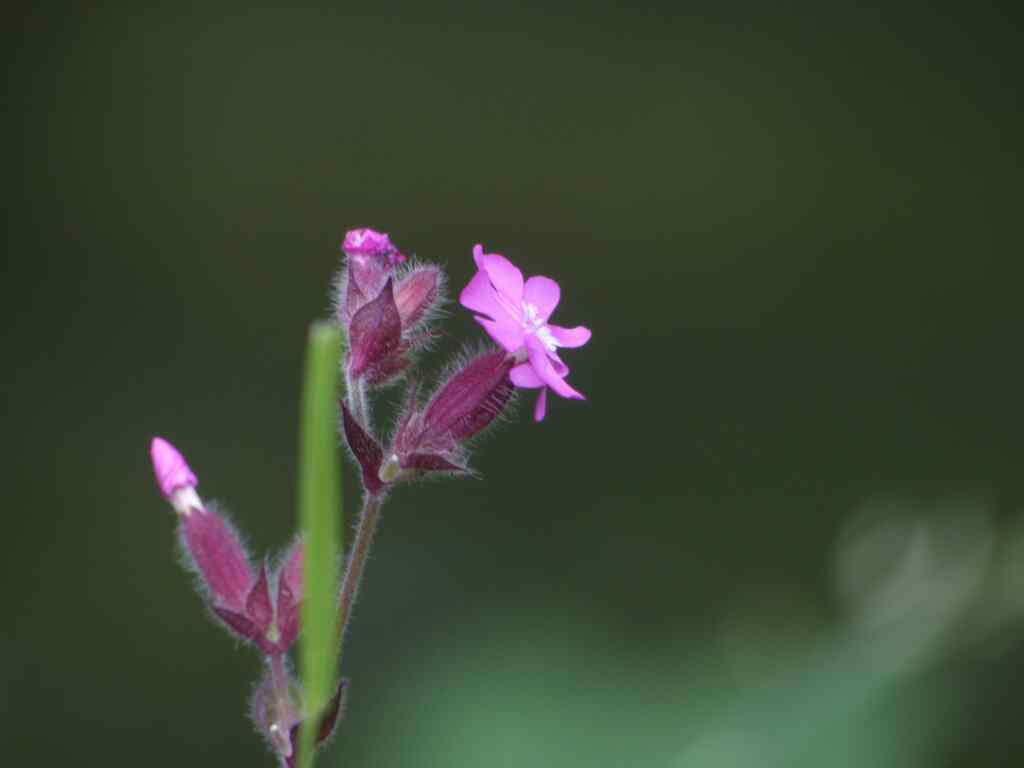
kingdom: Plantae
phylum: Tracheophyta
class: Magnoliopsida
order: Caryophyllales
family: Caryophyllaceae
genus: Silene
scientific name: Silene dioica
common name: Red campion
